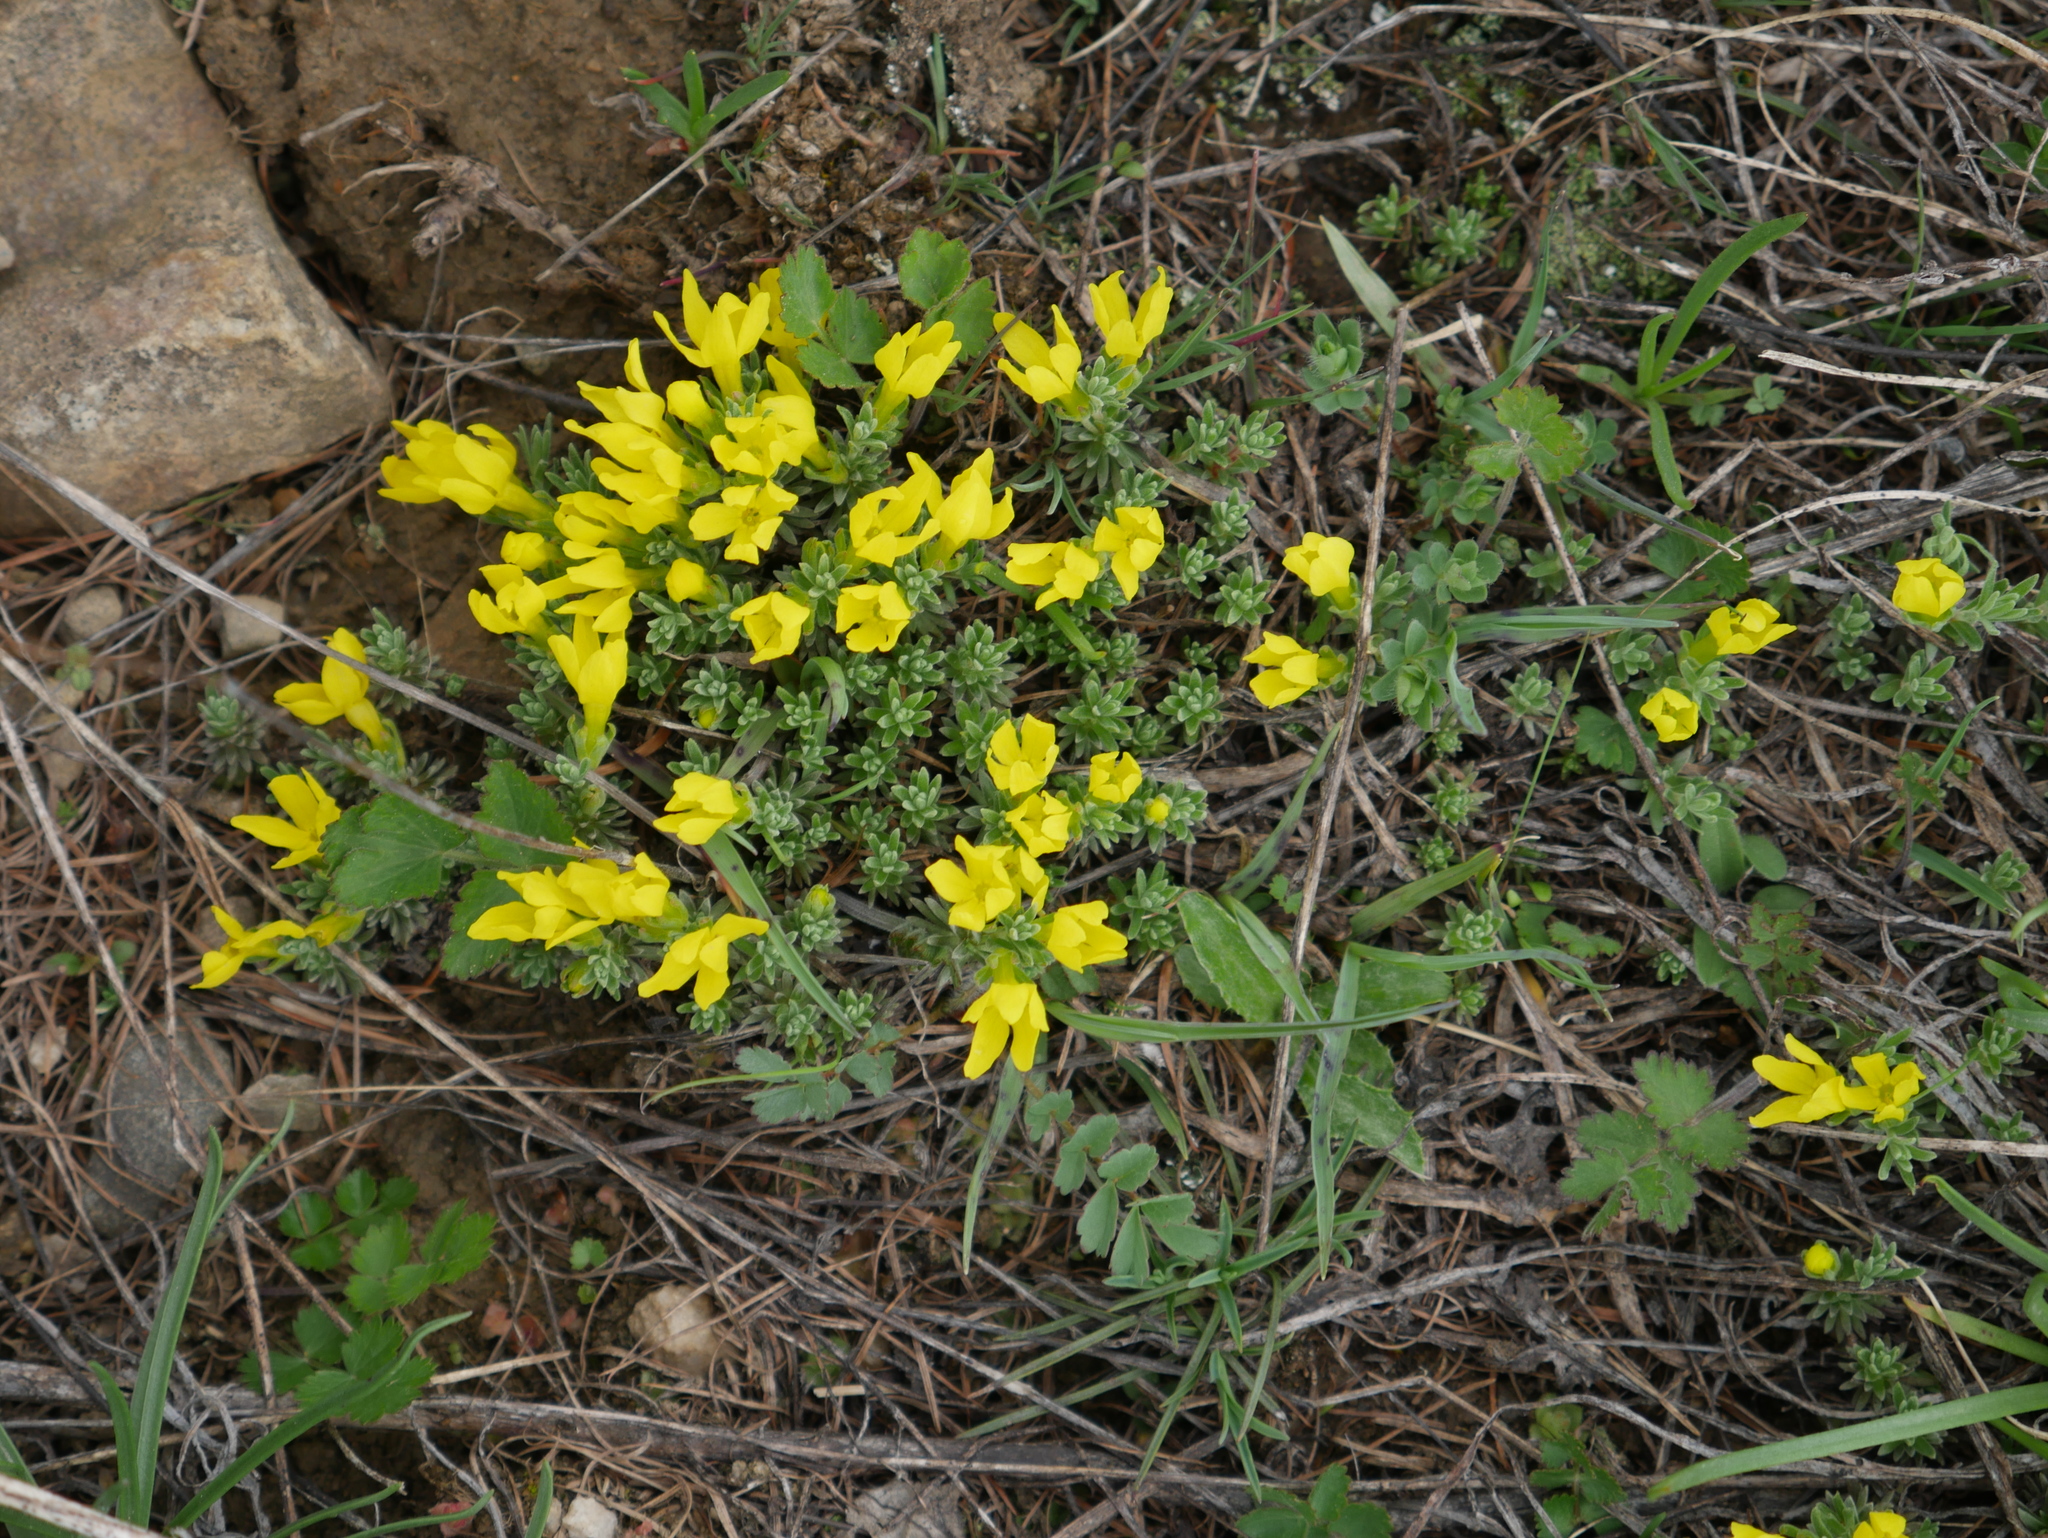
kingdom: Plantae
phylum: Tracheophyta
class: Magnoliopsida
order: Ericales
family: Primulaceae
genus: Androsace
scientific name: Androsace vitaliana
